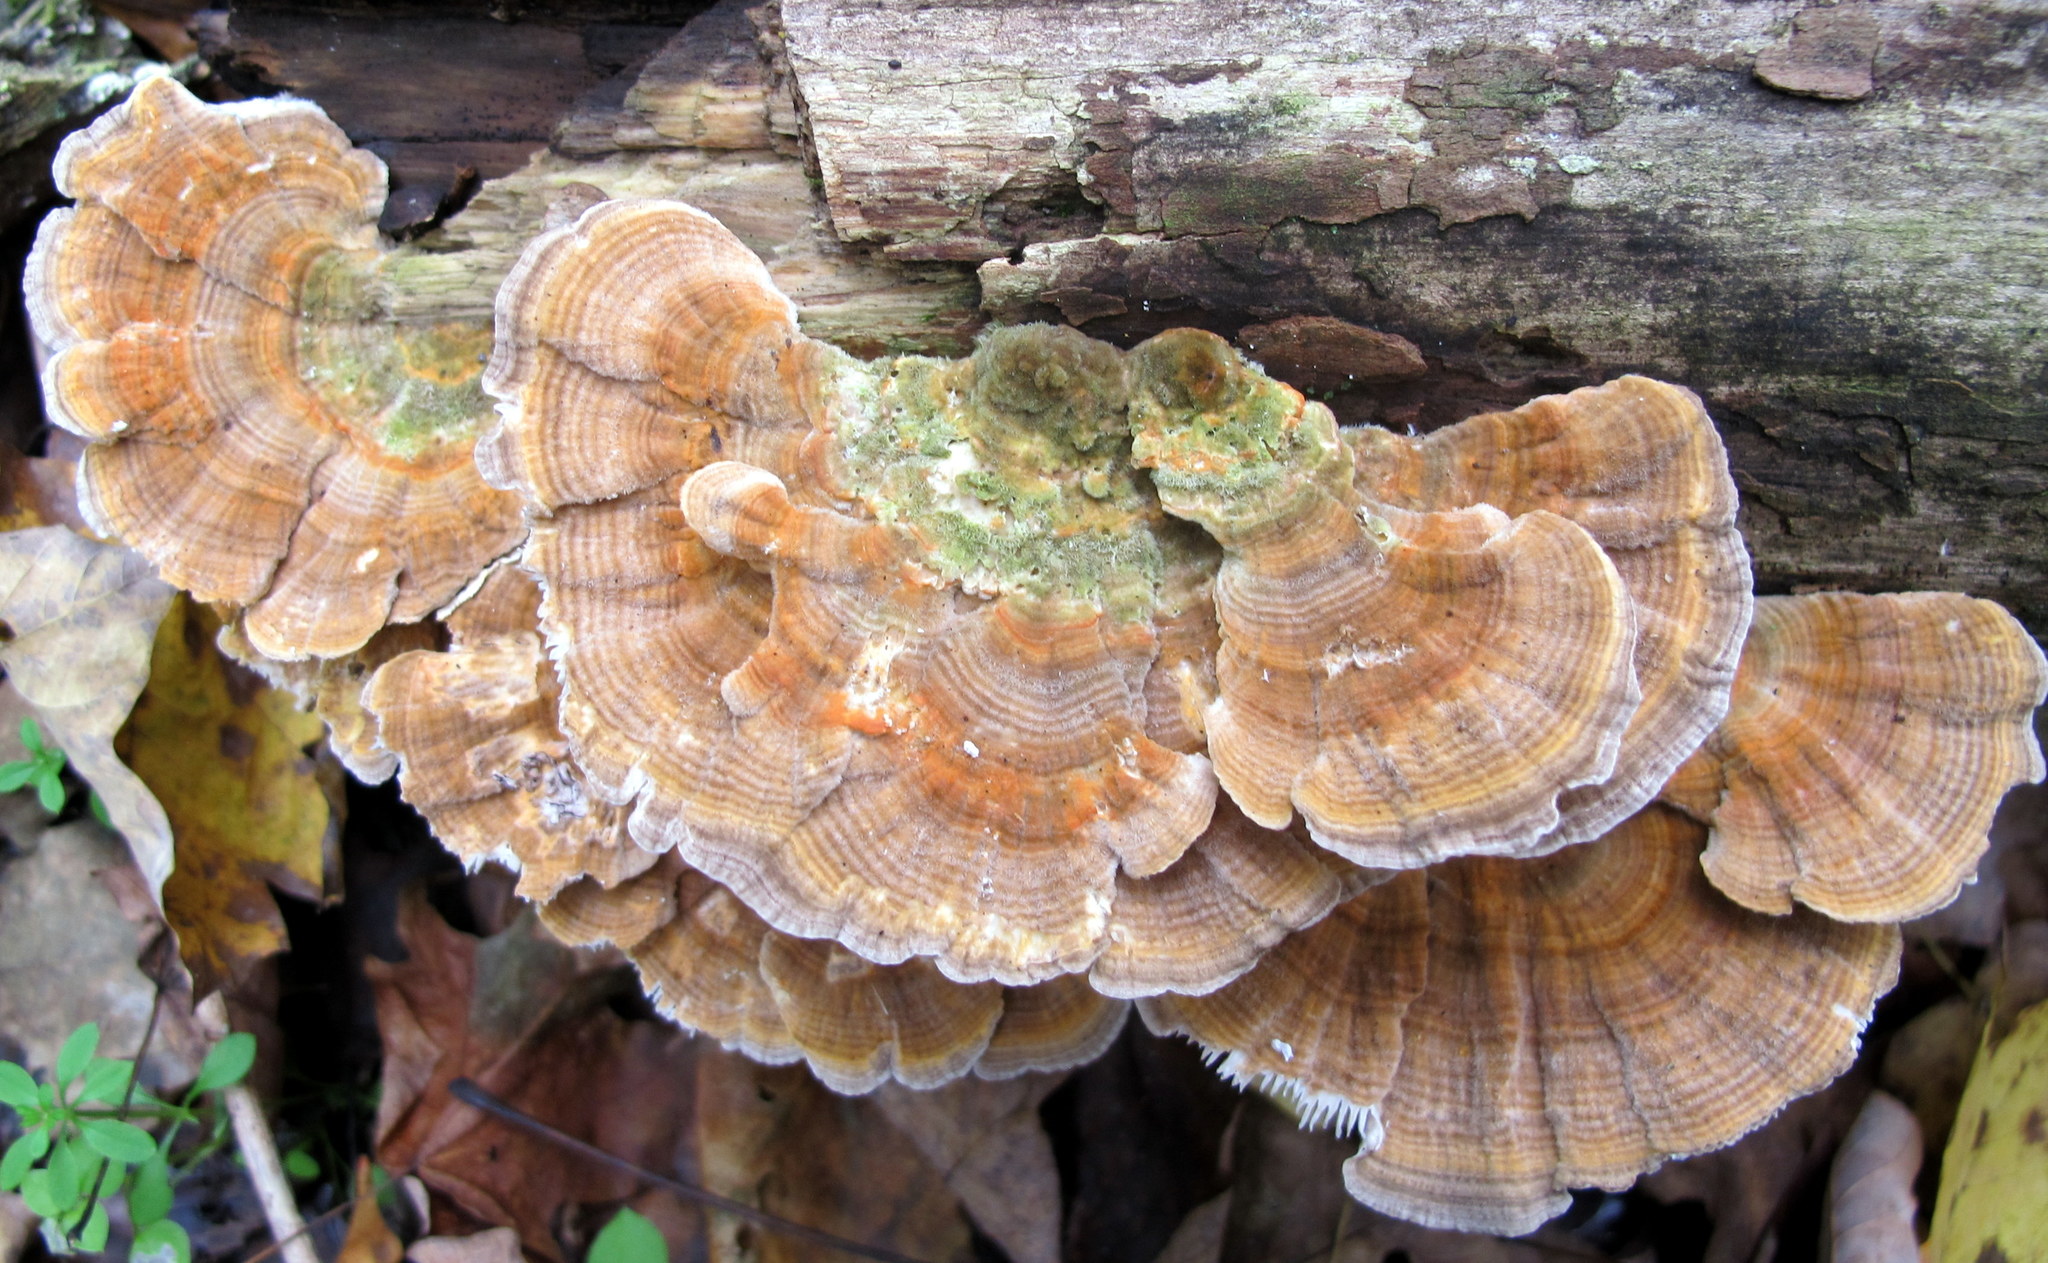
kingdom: Fungi
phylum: Basidiomycota
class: Agaricomycetes
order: Polyporales
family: Polyporaceae
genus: Lenzites
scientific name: Lenzites betulinus
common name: Birch mazegill
